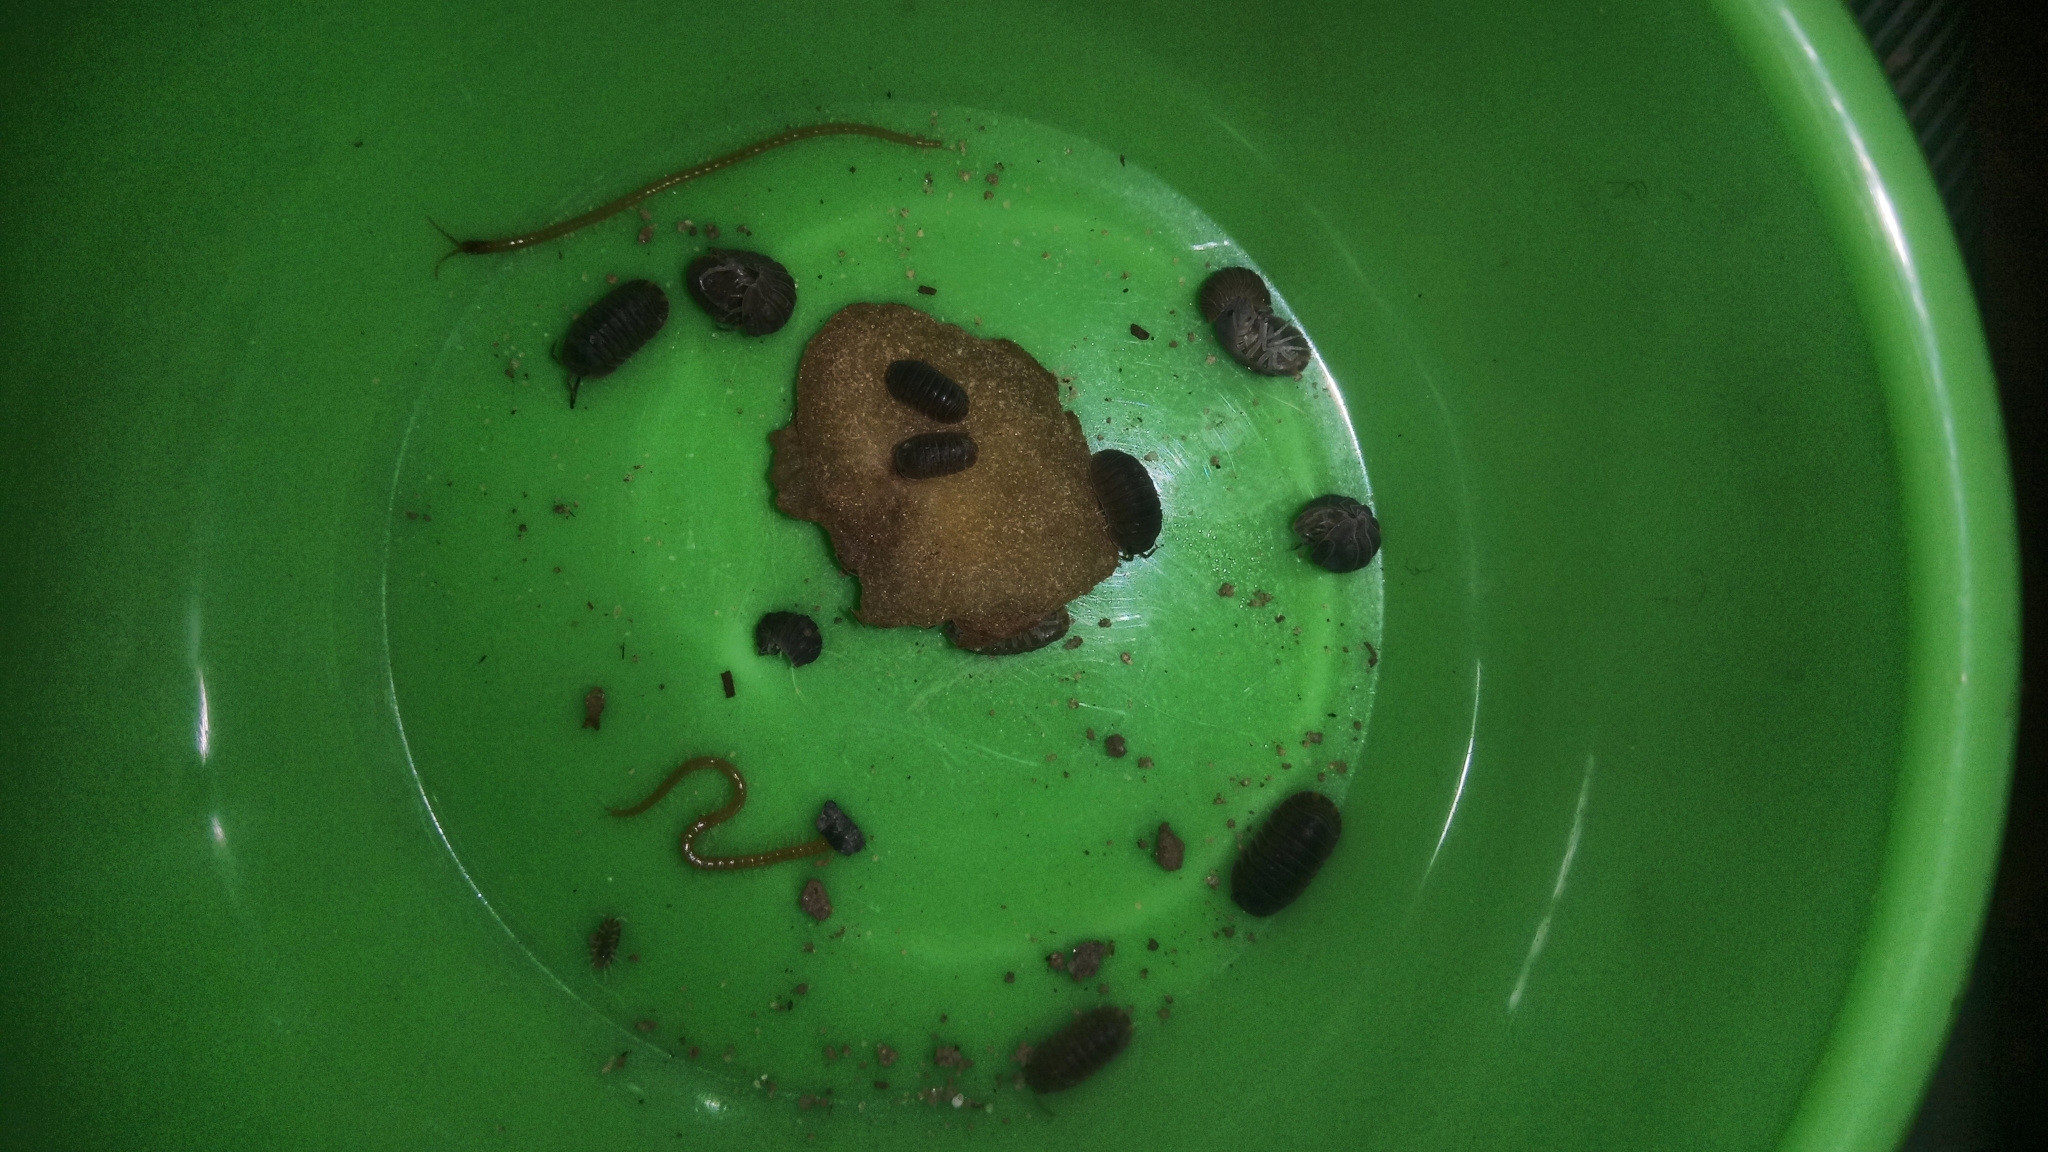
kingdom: Animalia
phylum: Arthropoda
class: Malacostraca
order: Isopoda
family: Armadillidae
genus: Cubaris
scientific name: Cubaris murina
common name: Pillbug
